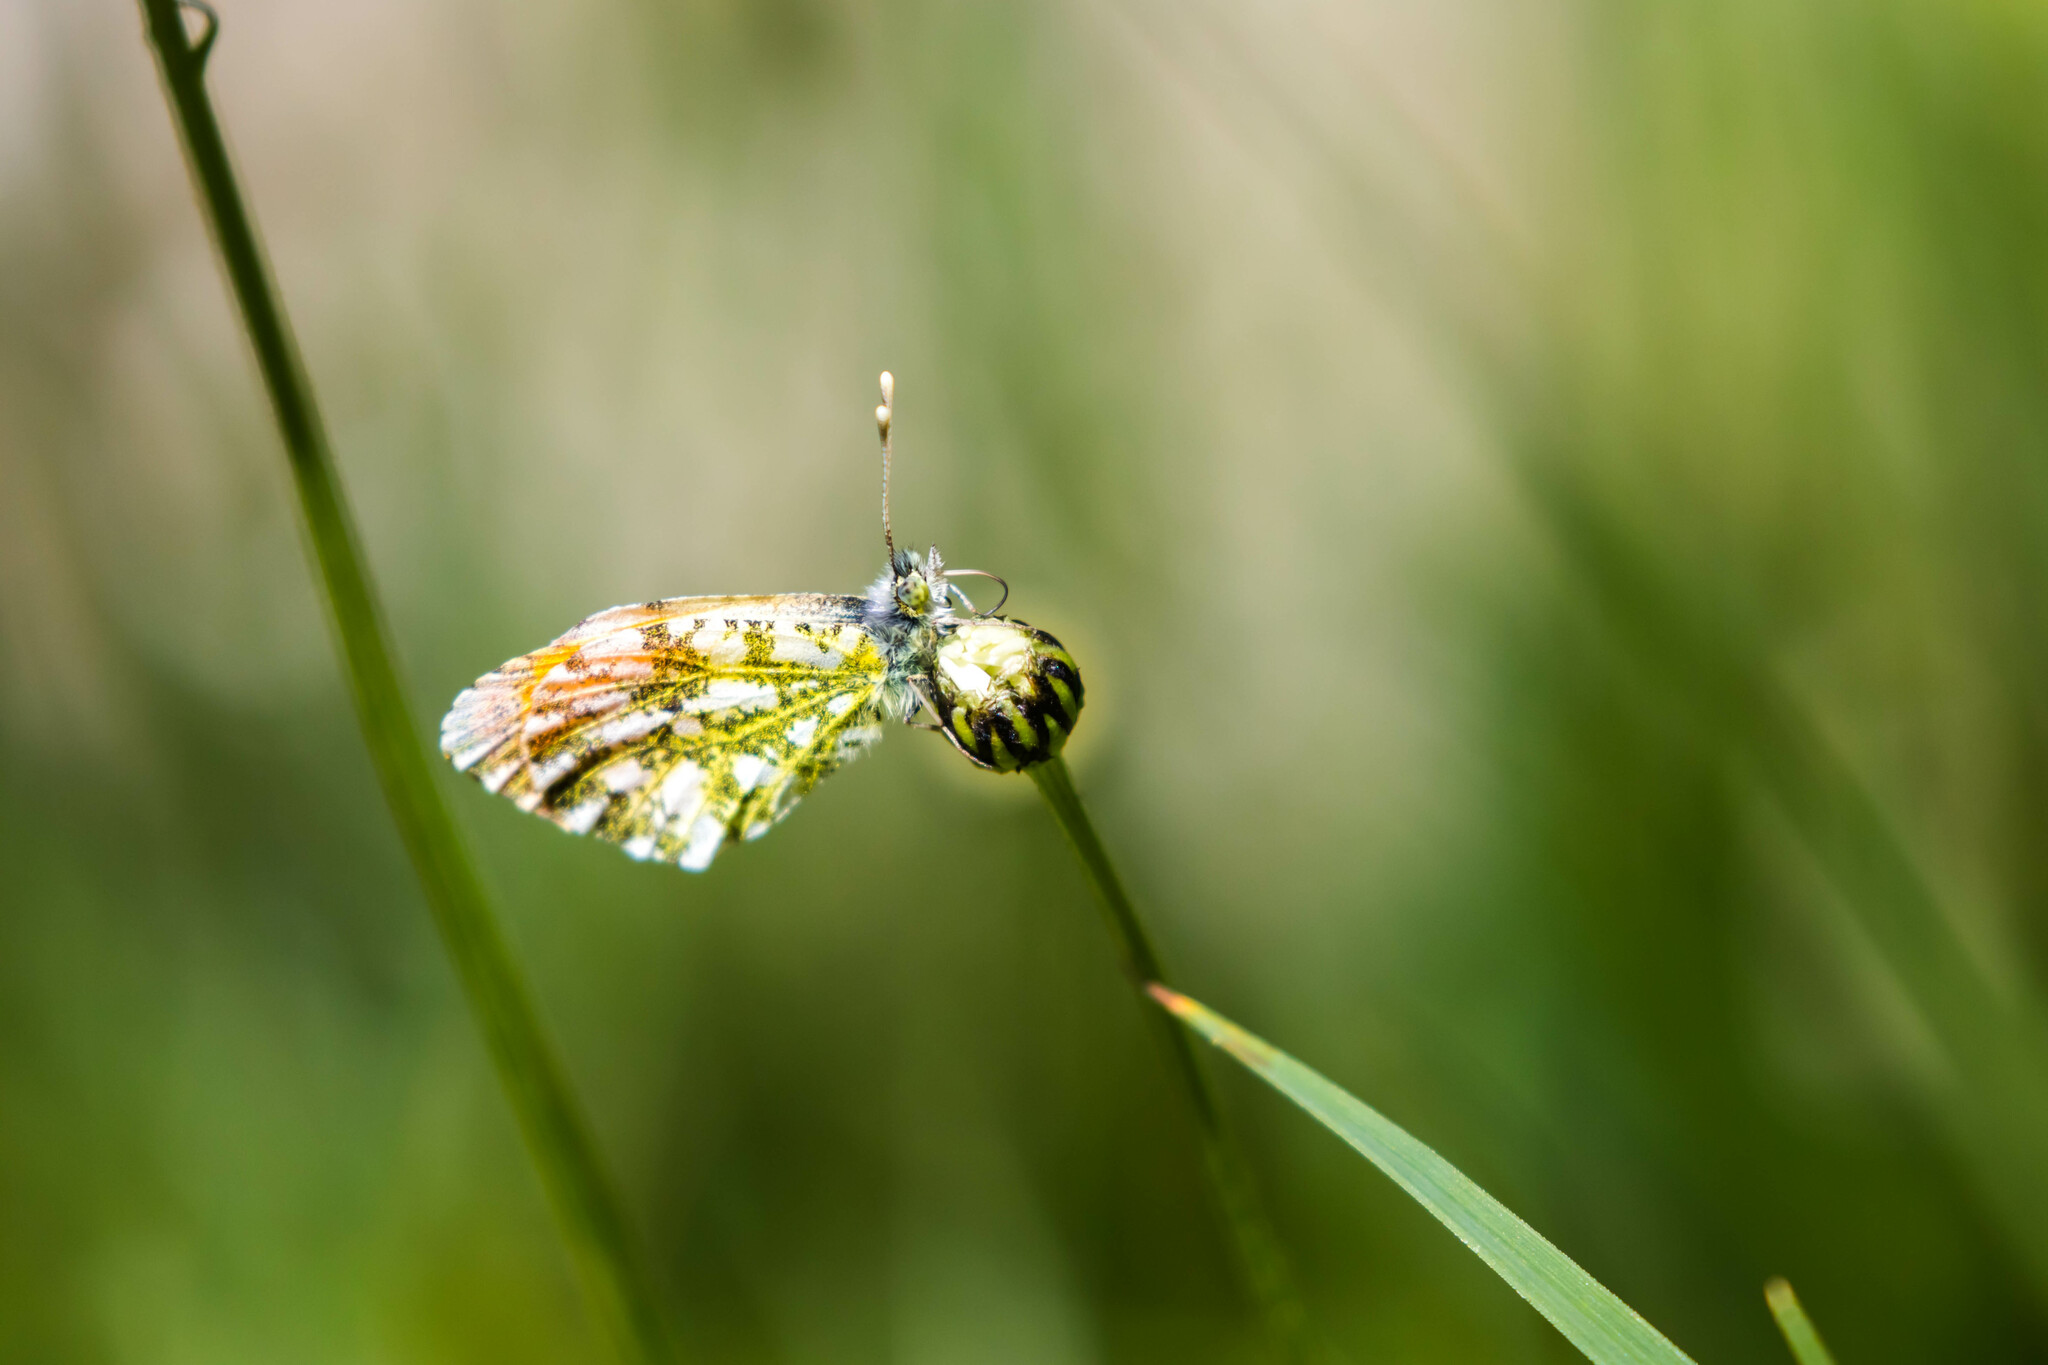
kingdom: Animalia
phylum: Arthropoda
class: Insecta
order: Lepidoptera
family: Pieridae
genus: Anthocharis
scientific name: Anthocharis cardamines
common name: Orange-tip
